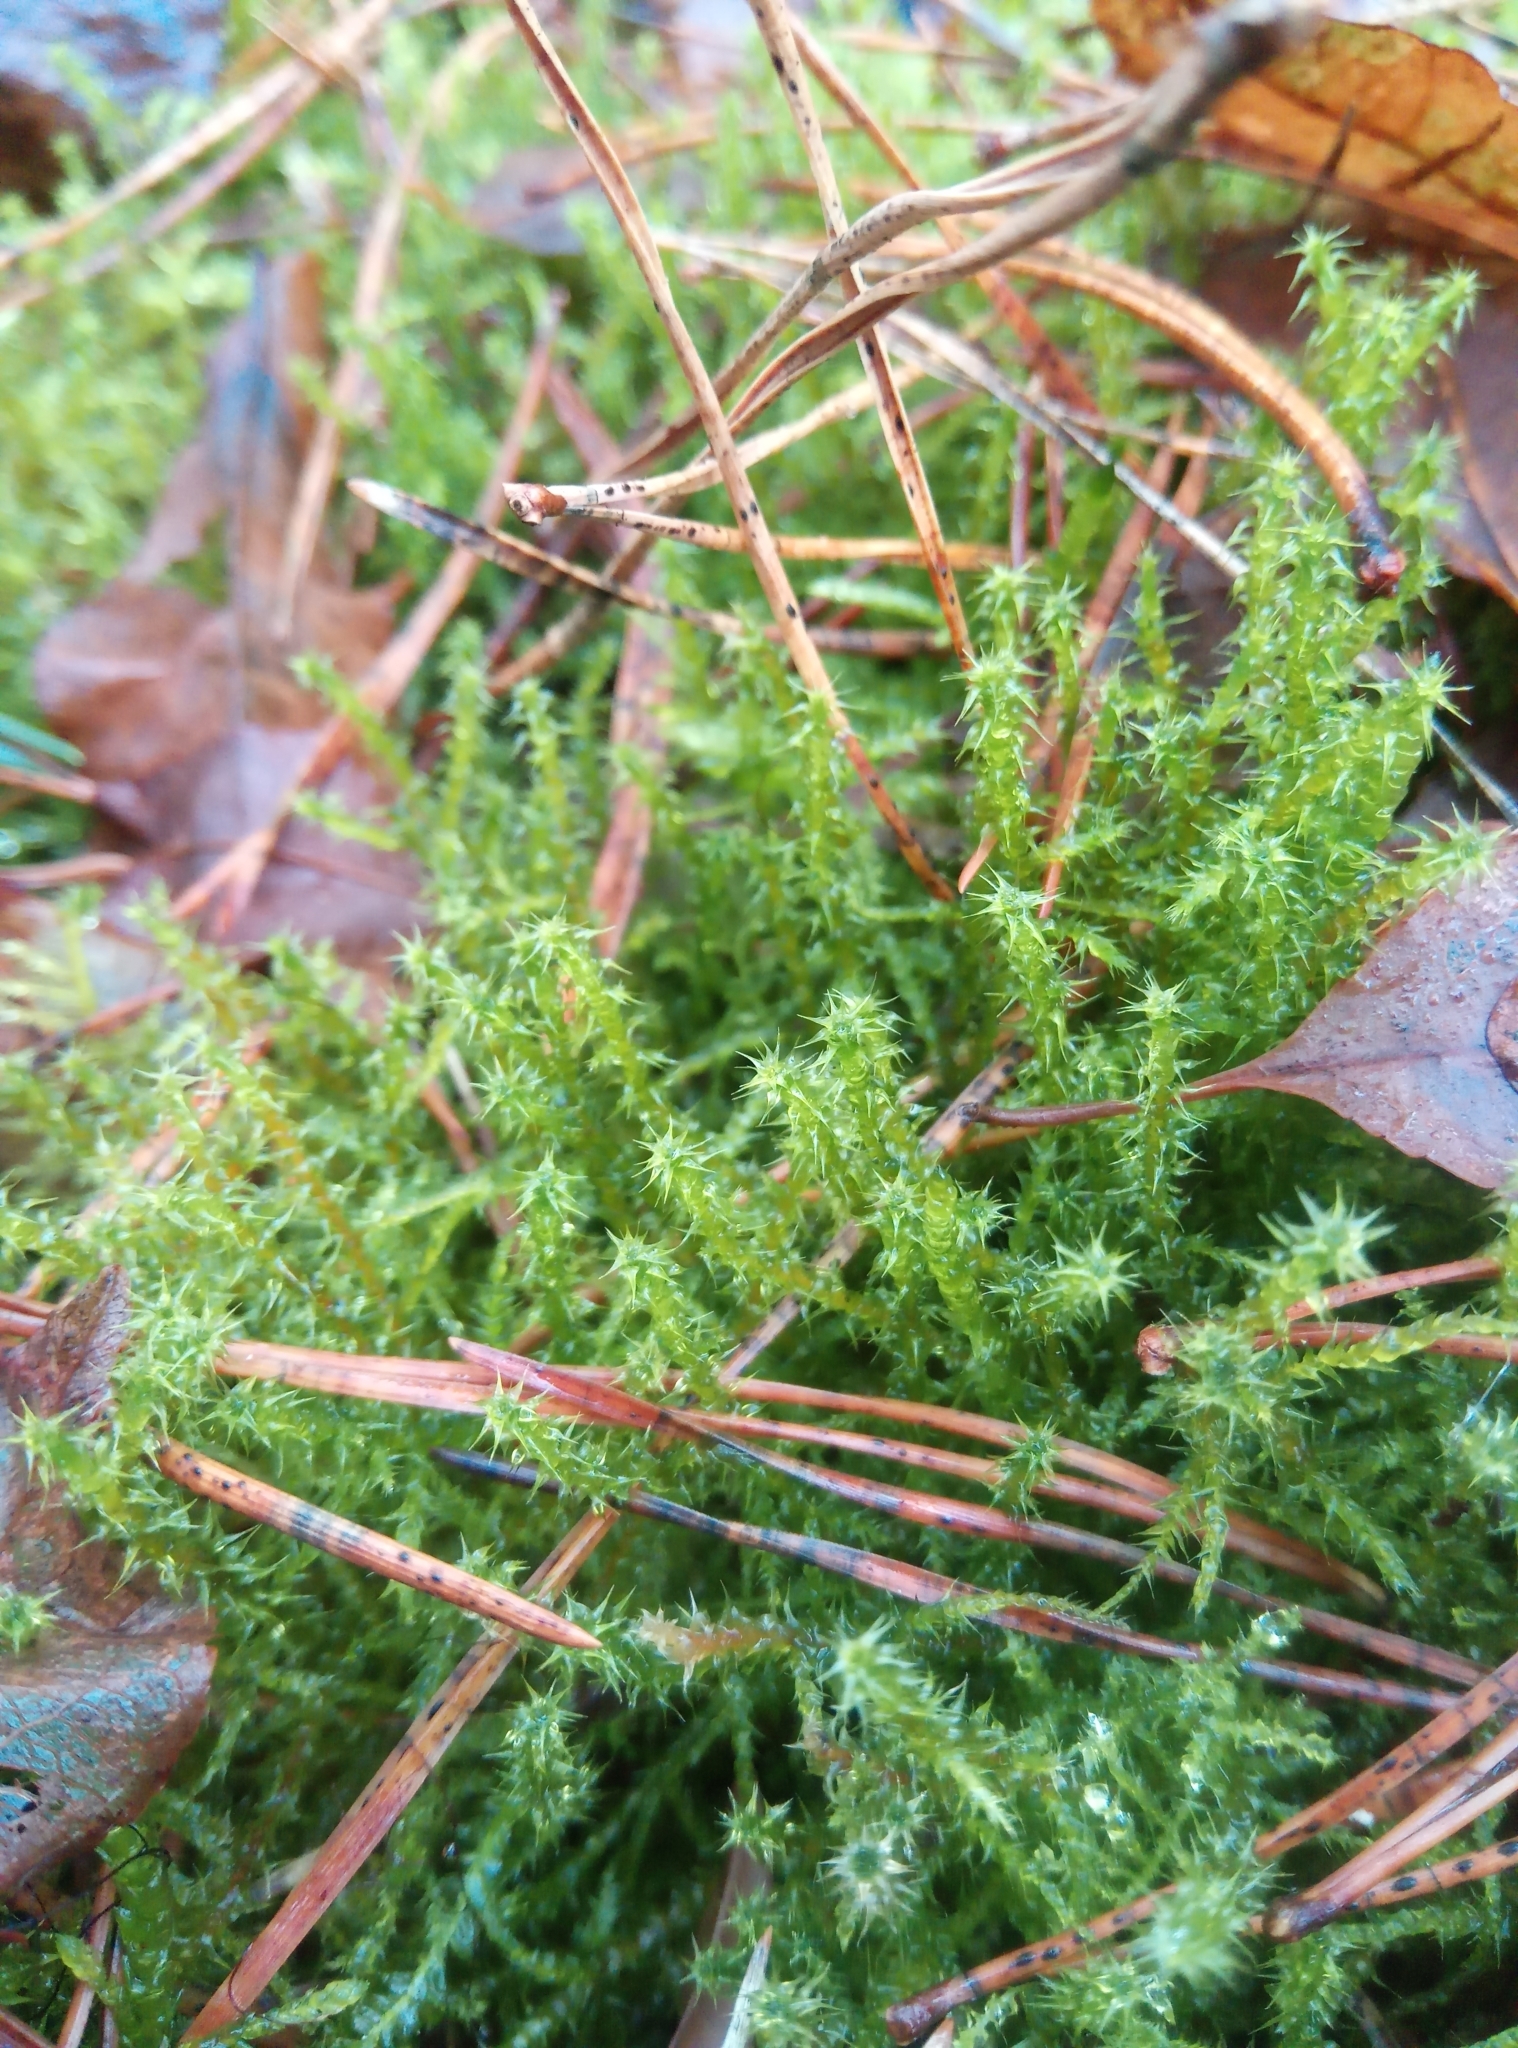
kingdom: Plantae
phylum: Bryophyta
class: Bryopsida
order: Hypnales
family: Hylocomiaceae
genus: Rhytidiadelphus
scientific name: Rhytidiadelphus squarrosus
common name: Springy turf-moss
